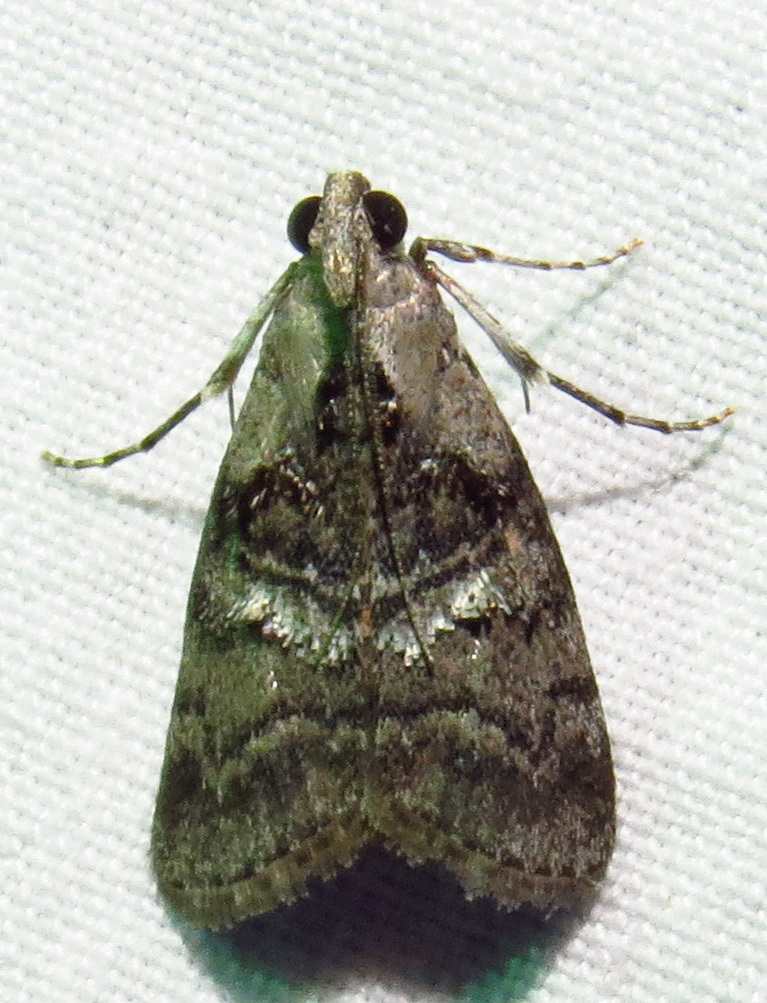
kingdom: Animalia
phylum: Arthropoda
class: Insecta
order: Lepidoptera
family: Pyralidae
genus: Pococera
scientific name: Pococera asperatella
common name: Maple webworm moth
